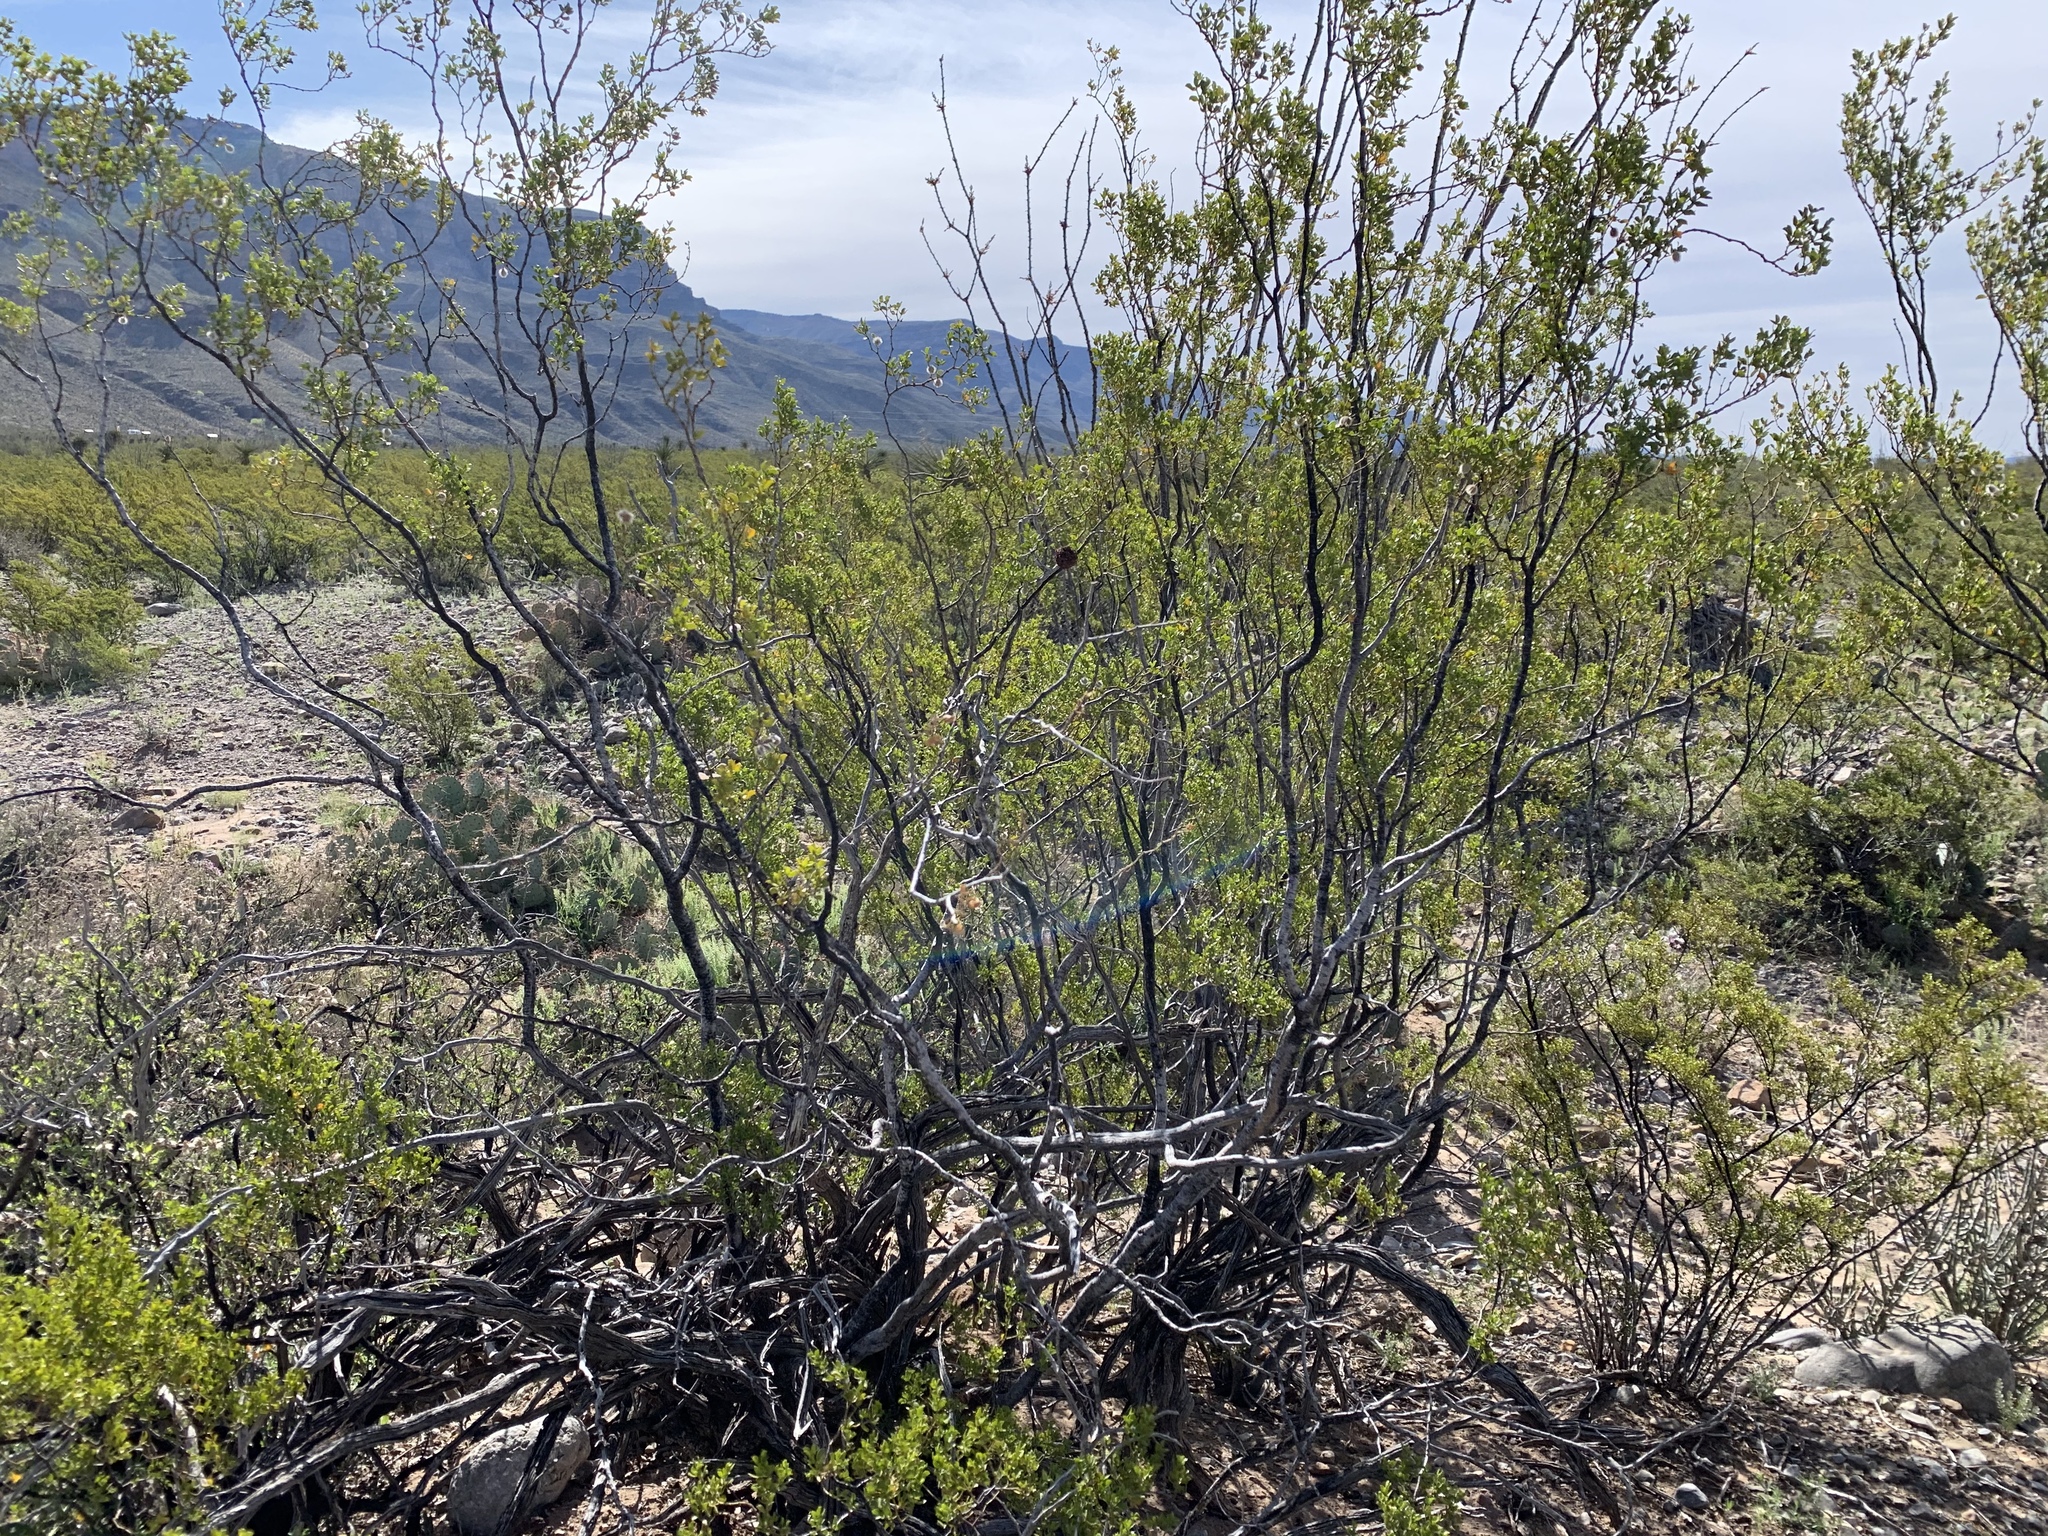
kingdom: Plantae
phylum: Tracheophyta
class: Magnoliopsida
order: Zygophyllales
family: Zygophyllaceae
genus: Larrea
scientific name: Larrea tridentata
